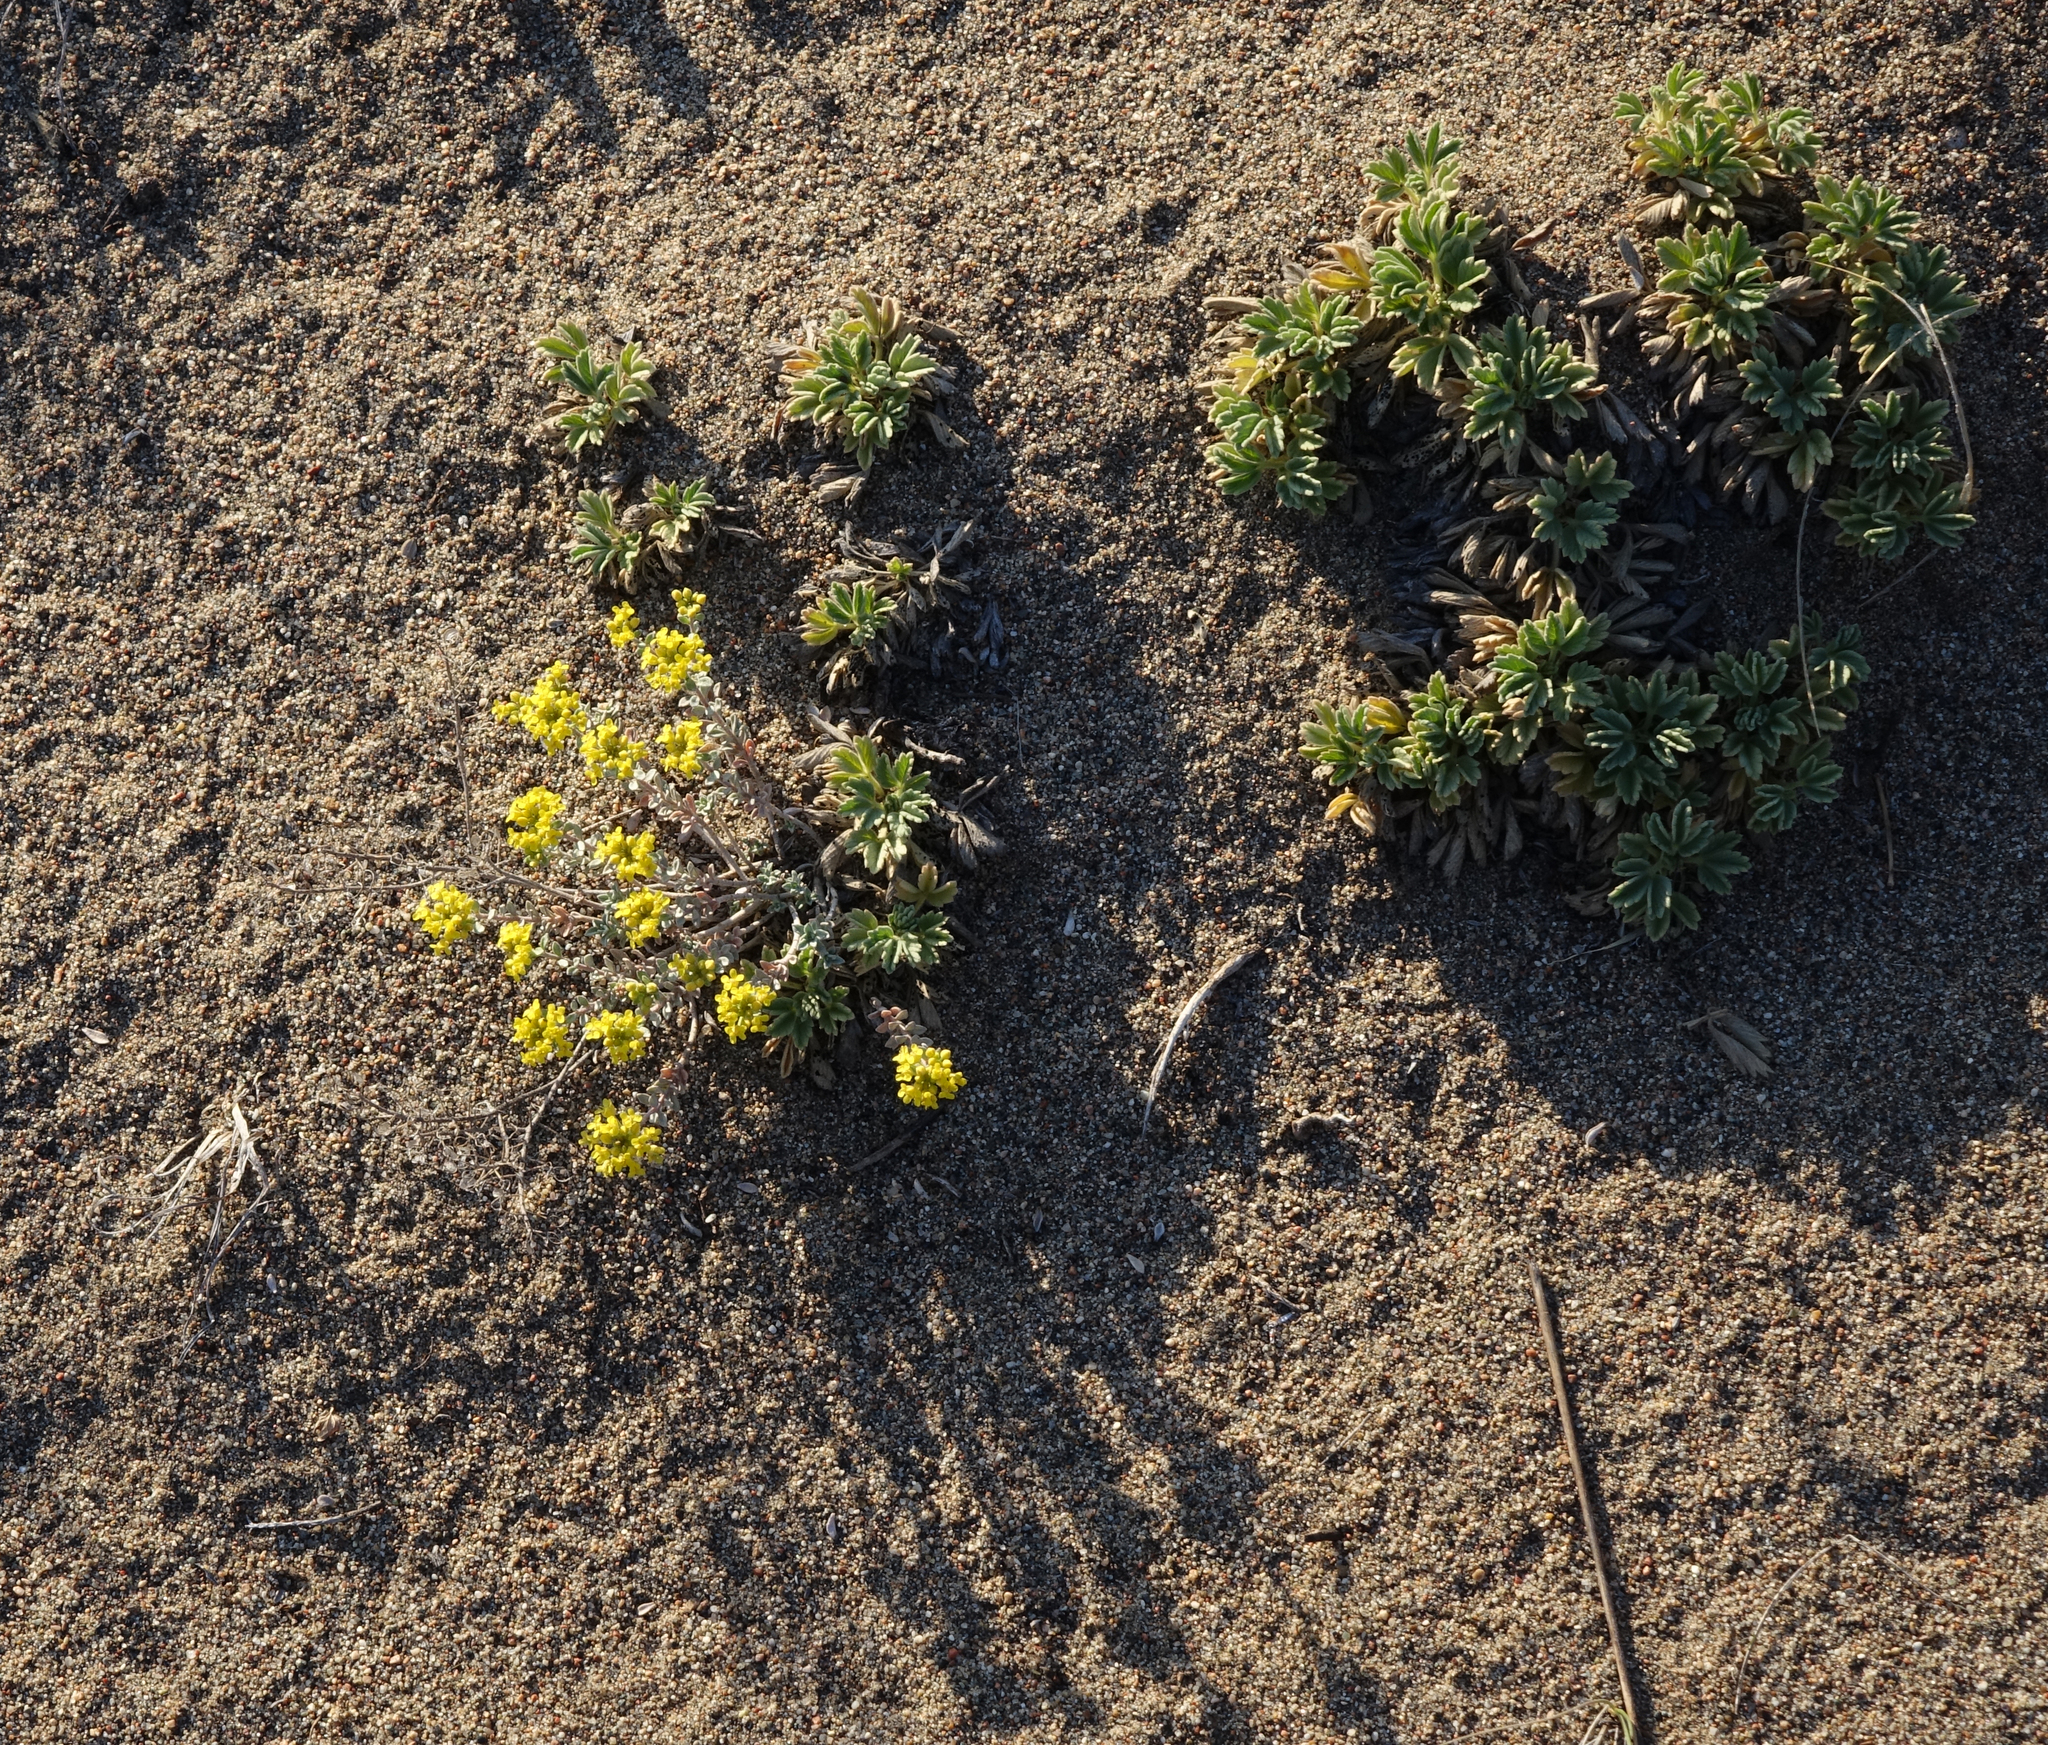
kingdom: Plantae
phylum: Tracheophyta
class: Magnoliopsida
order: Brassicales
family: Brassicaceae
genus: Odontarrhena
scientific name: Odontarrhena obovata
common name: American alyssum
